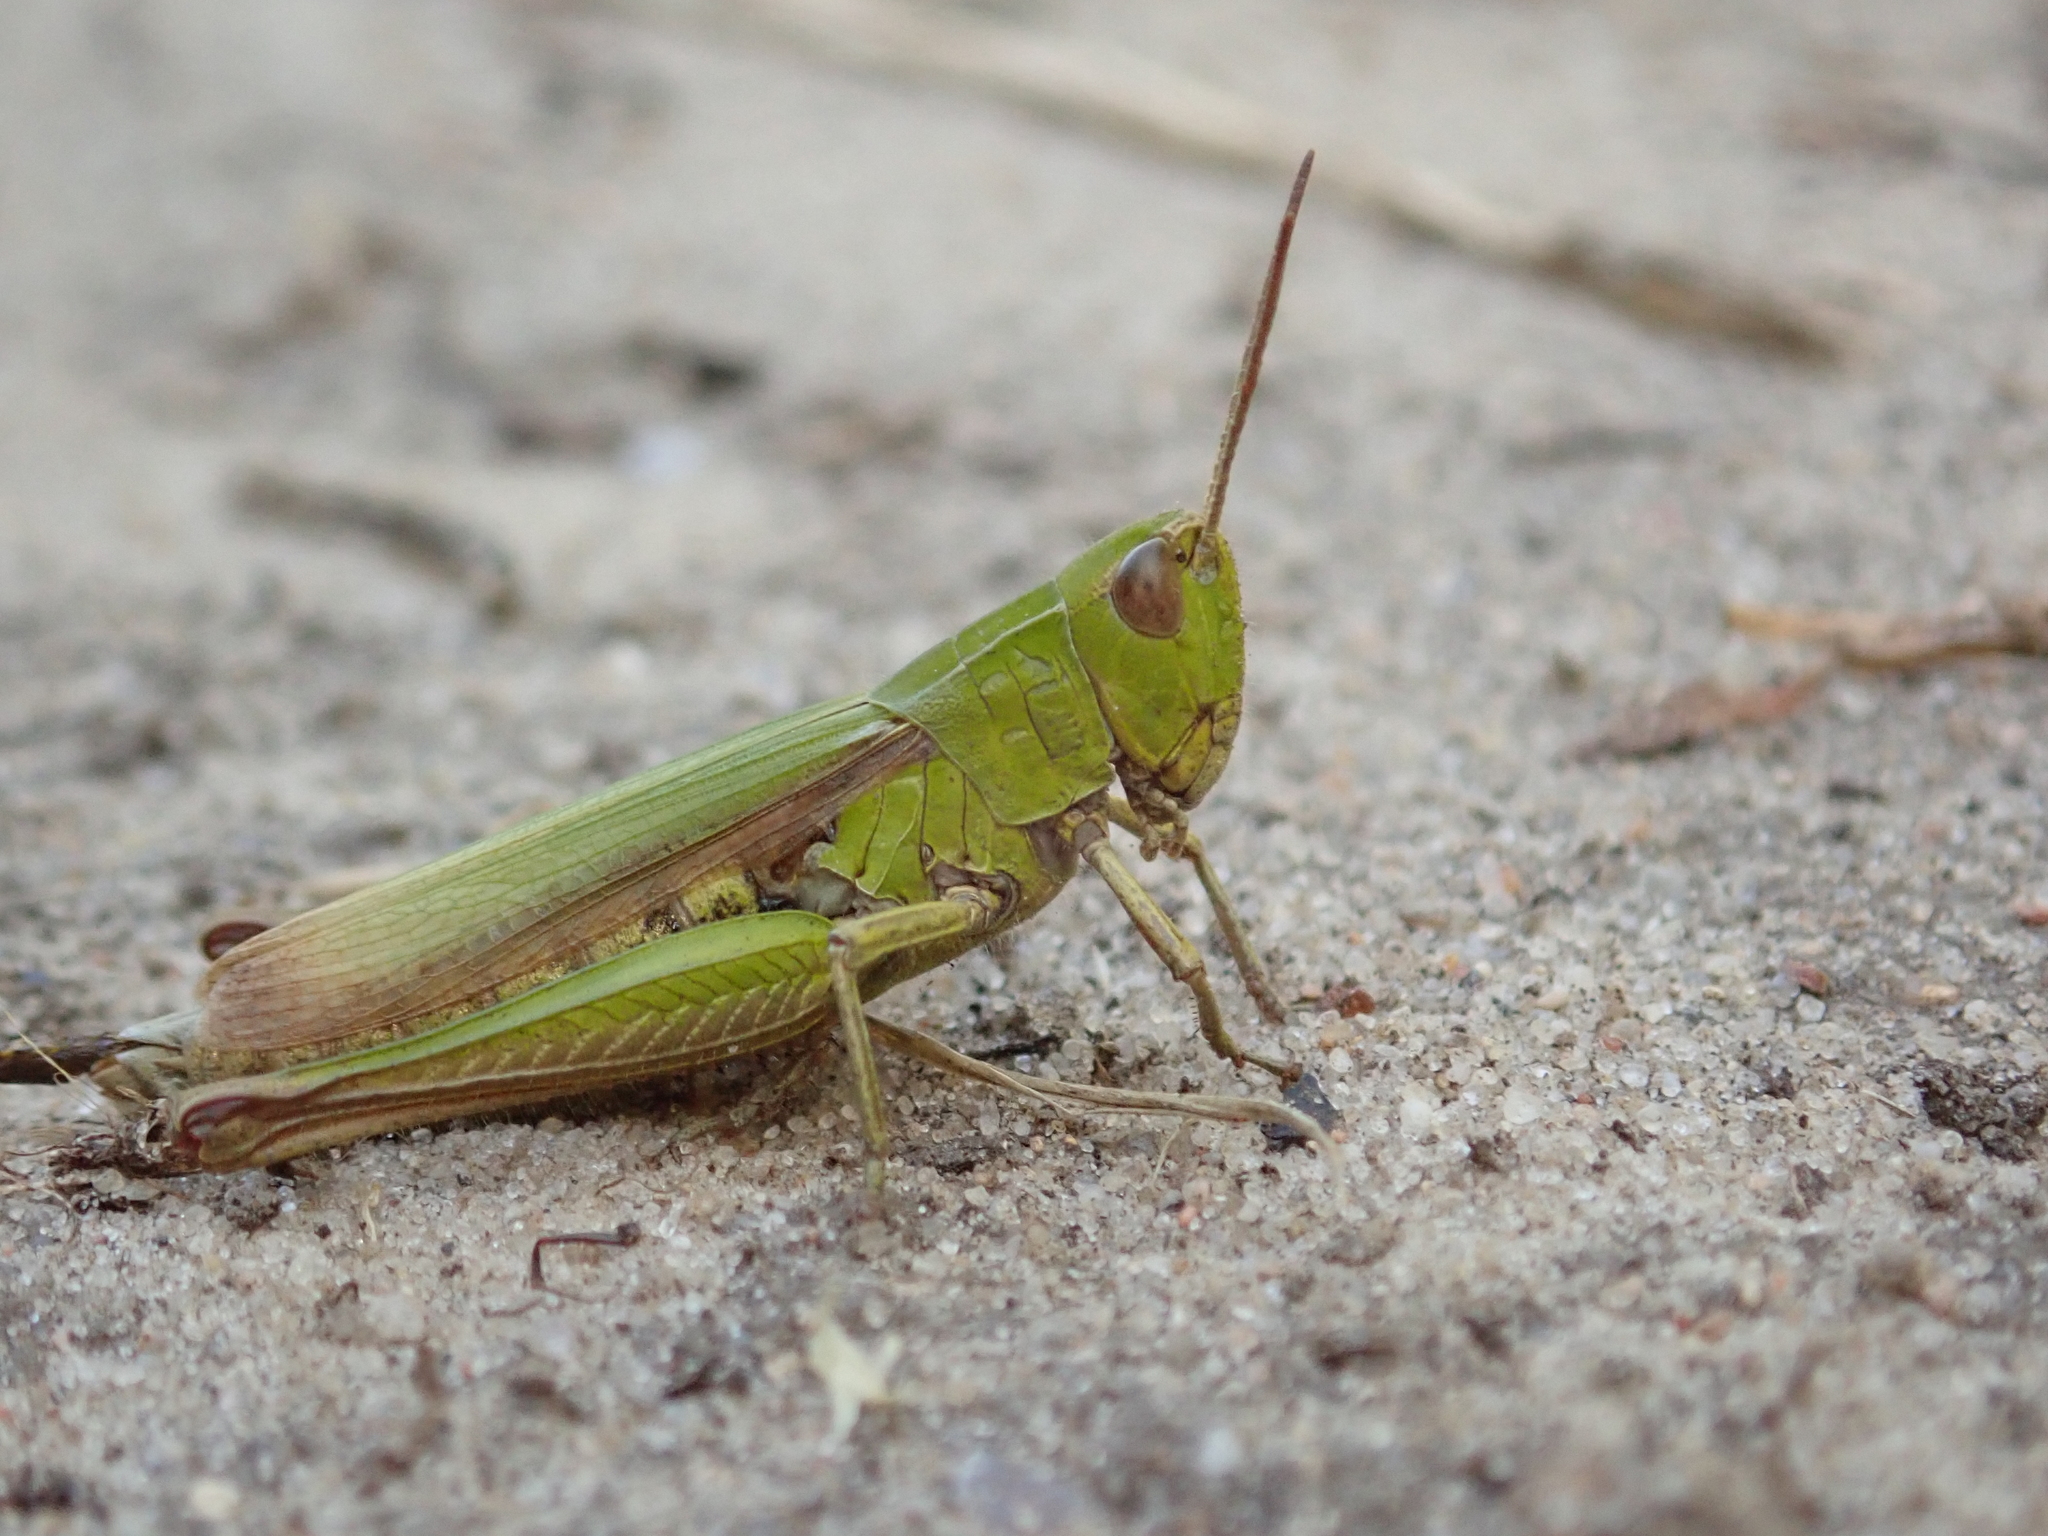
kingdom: Animalia
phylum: Arthropoda
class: Insecta
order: Orthoptera
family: Acrididae
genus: Chorthippus
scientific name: Chorthippus dorsatus
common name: Steppe grasshopper
